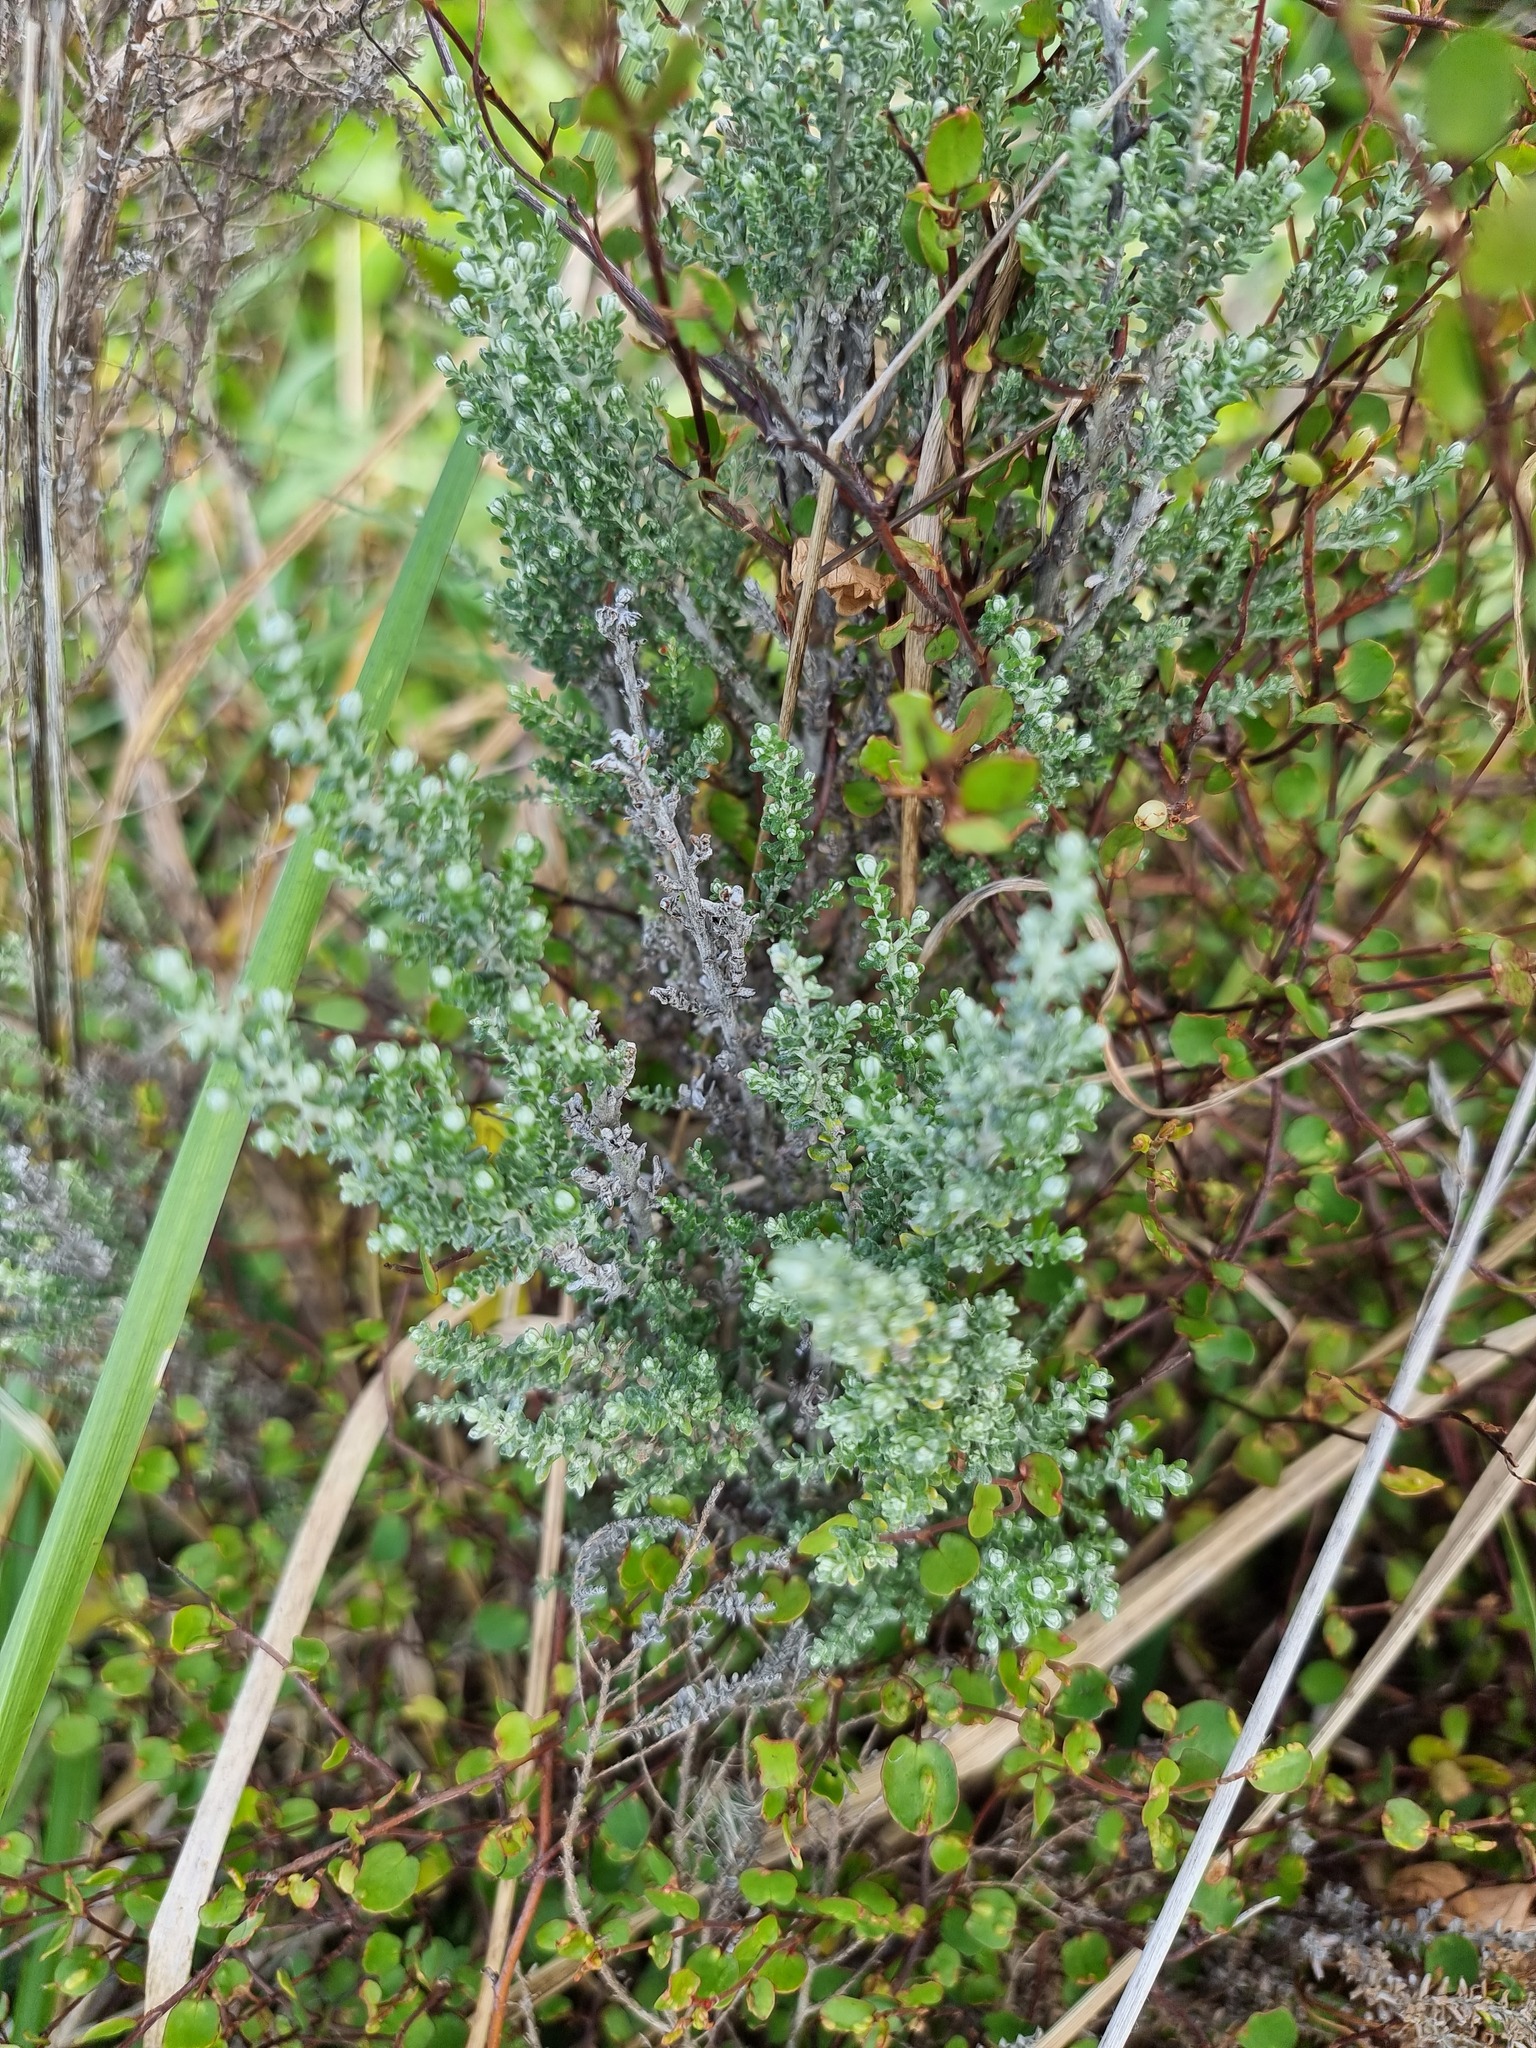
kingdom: Plantae
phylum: Tracheophyta
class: Magnoliopsida
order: Asterales
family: Asteraceae
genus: Ozothamnus
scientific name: Ozothamnus leptophyllus
